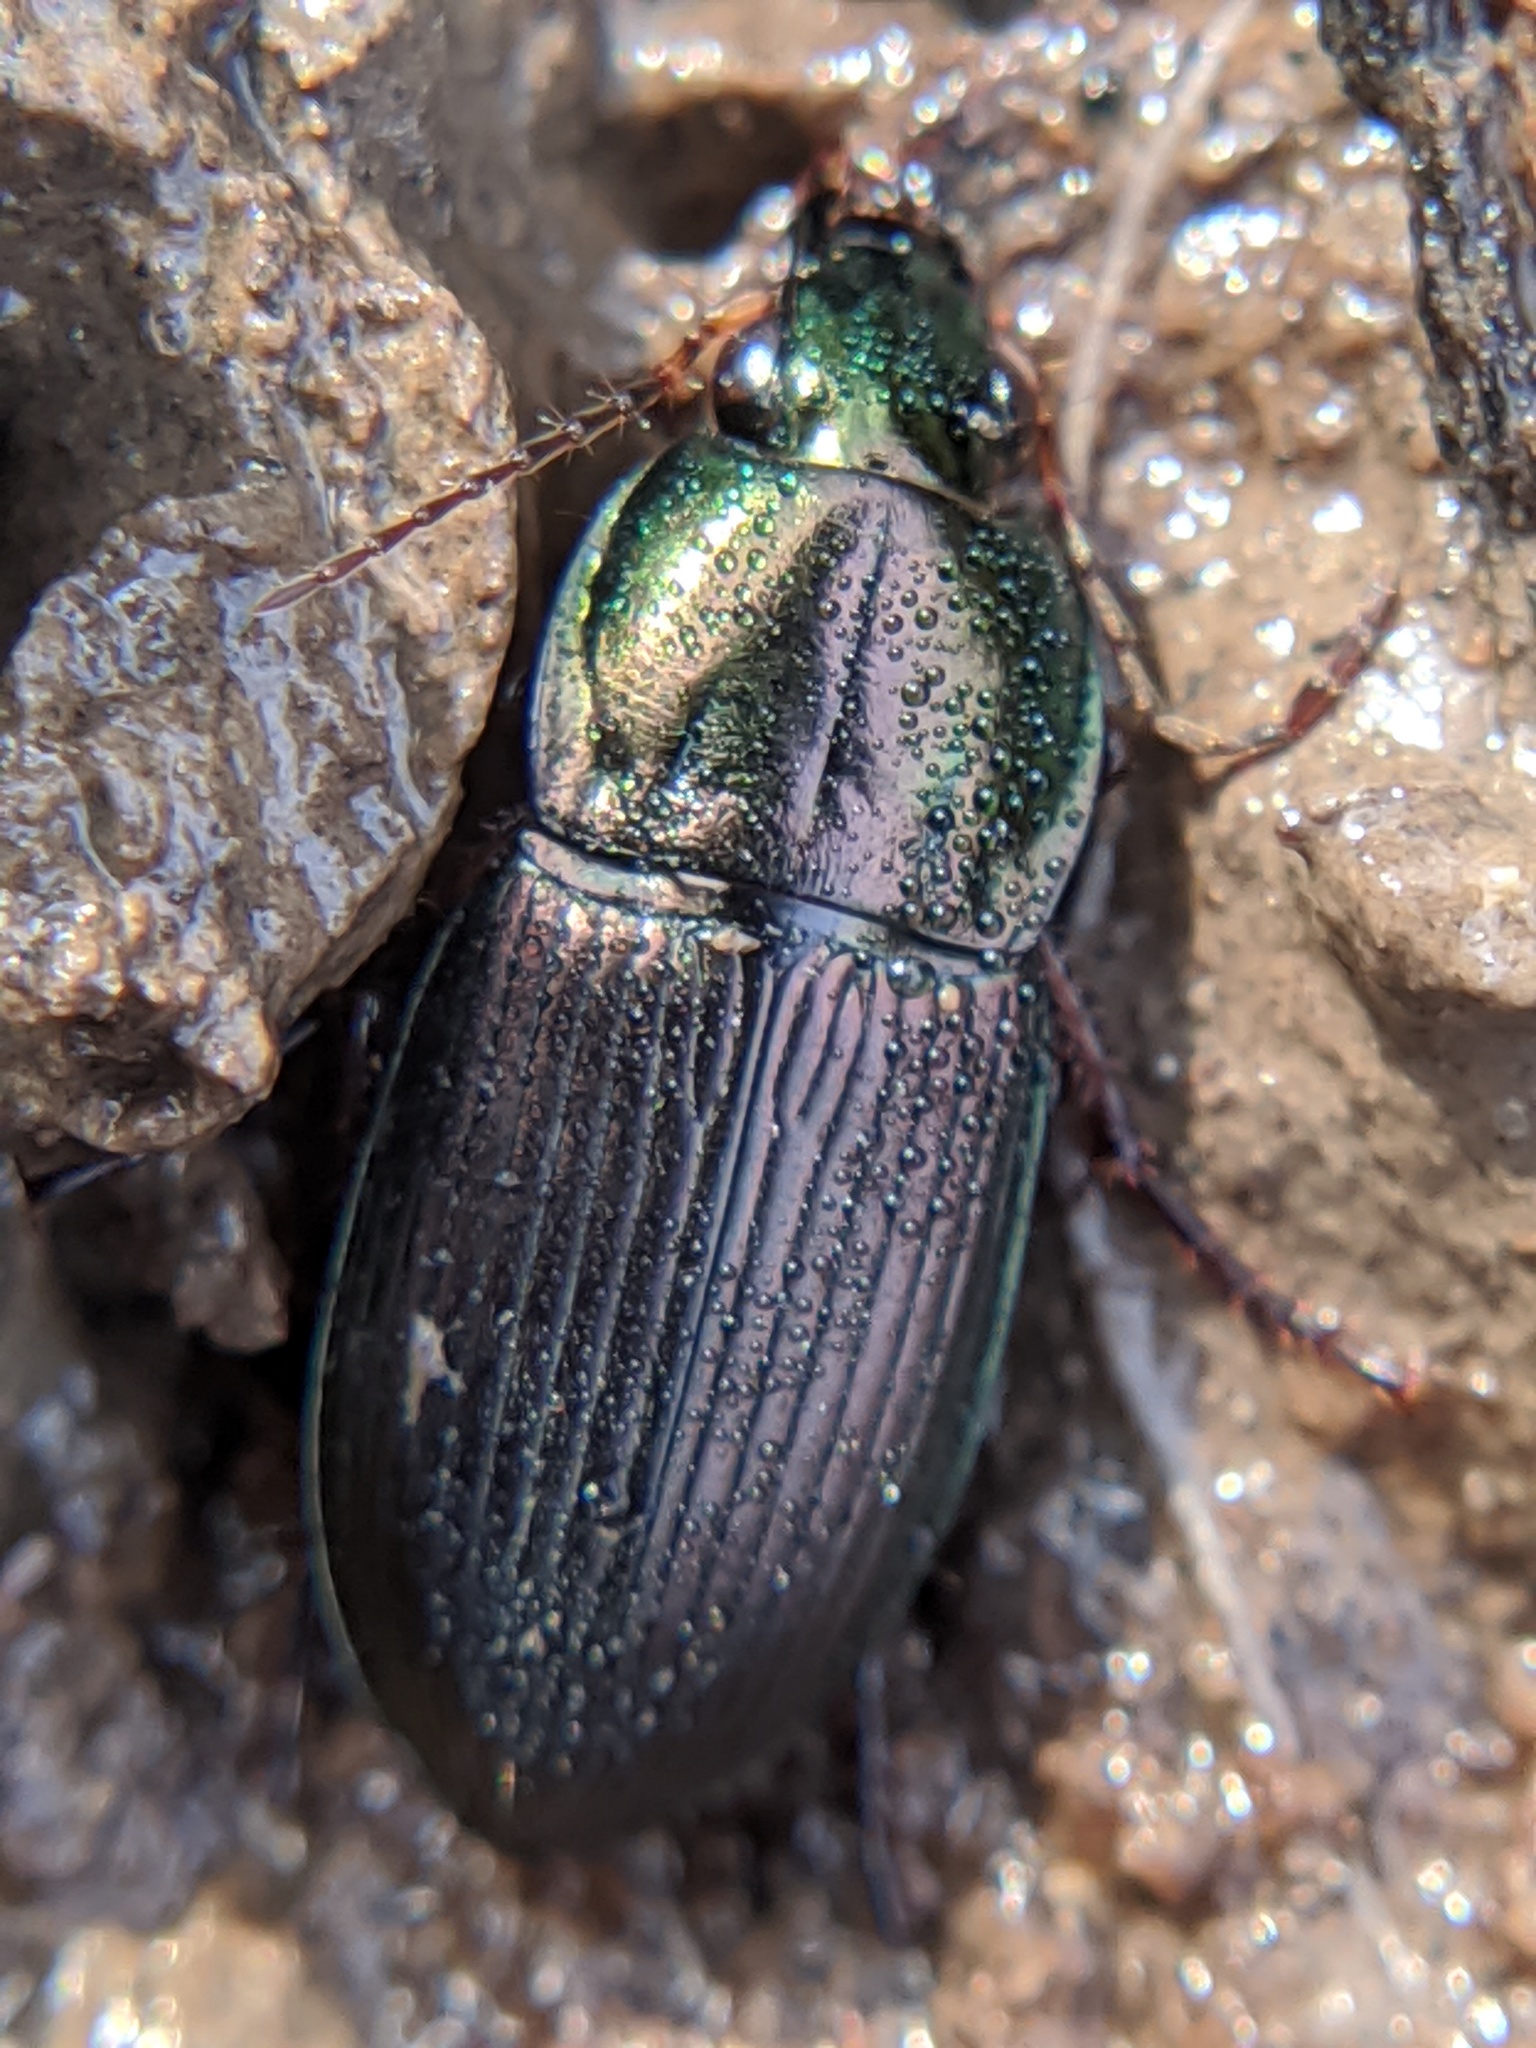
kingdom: Animalia
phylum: Arthropoda
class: Insecta
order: Coleoptera
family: Carabidae
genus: Poecilus
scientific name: Poecilus lucublandus
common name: Woodland ground beetle
